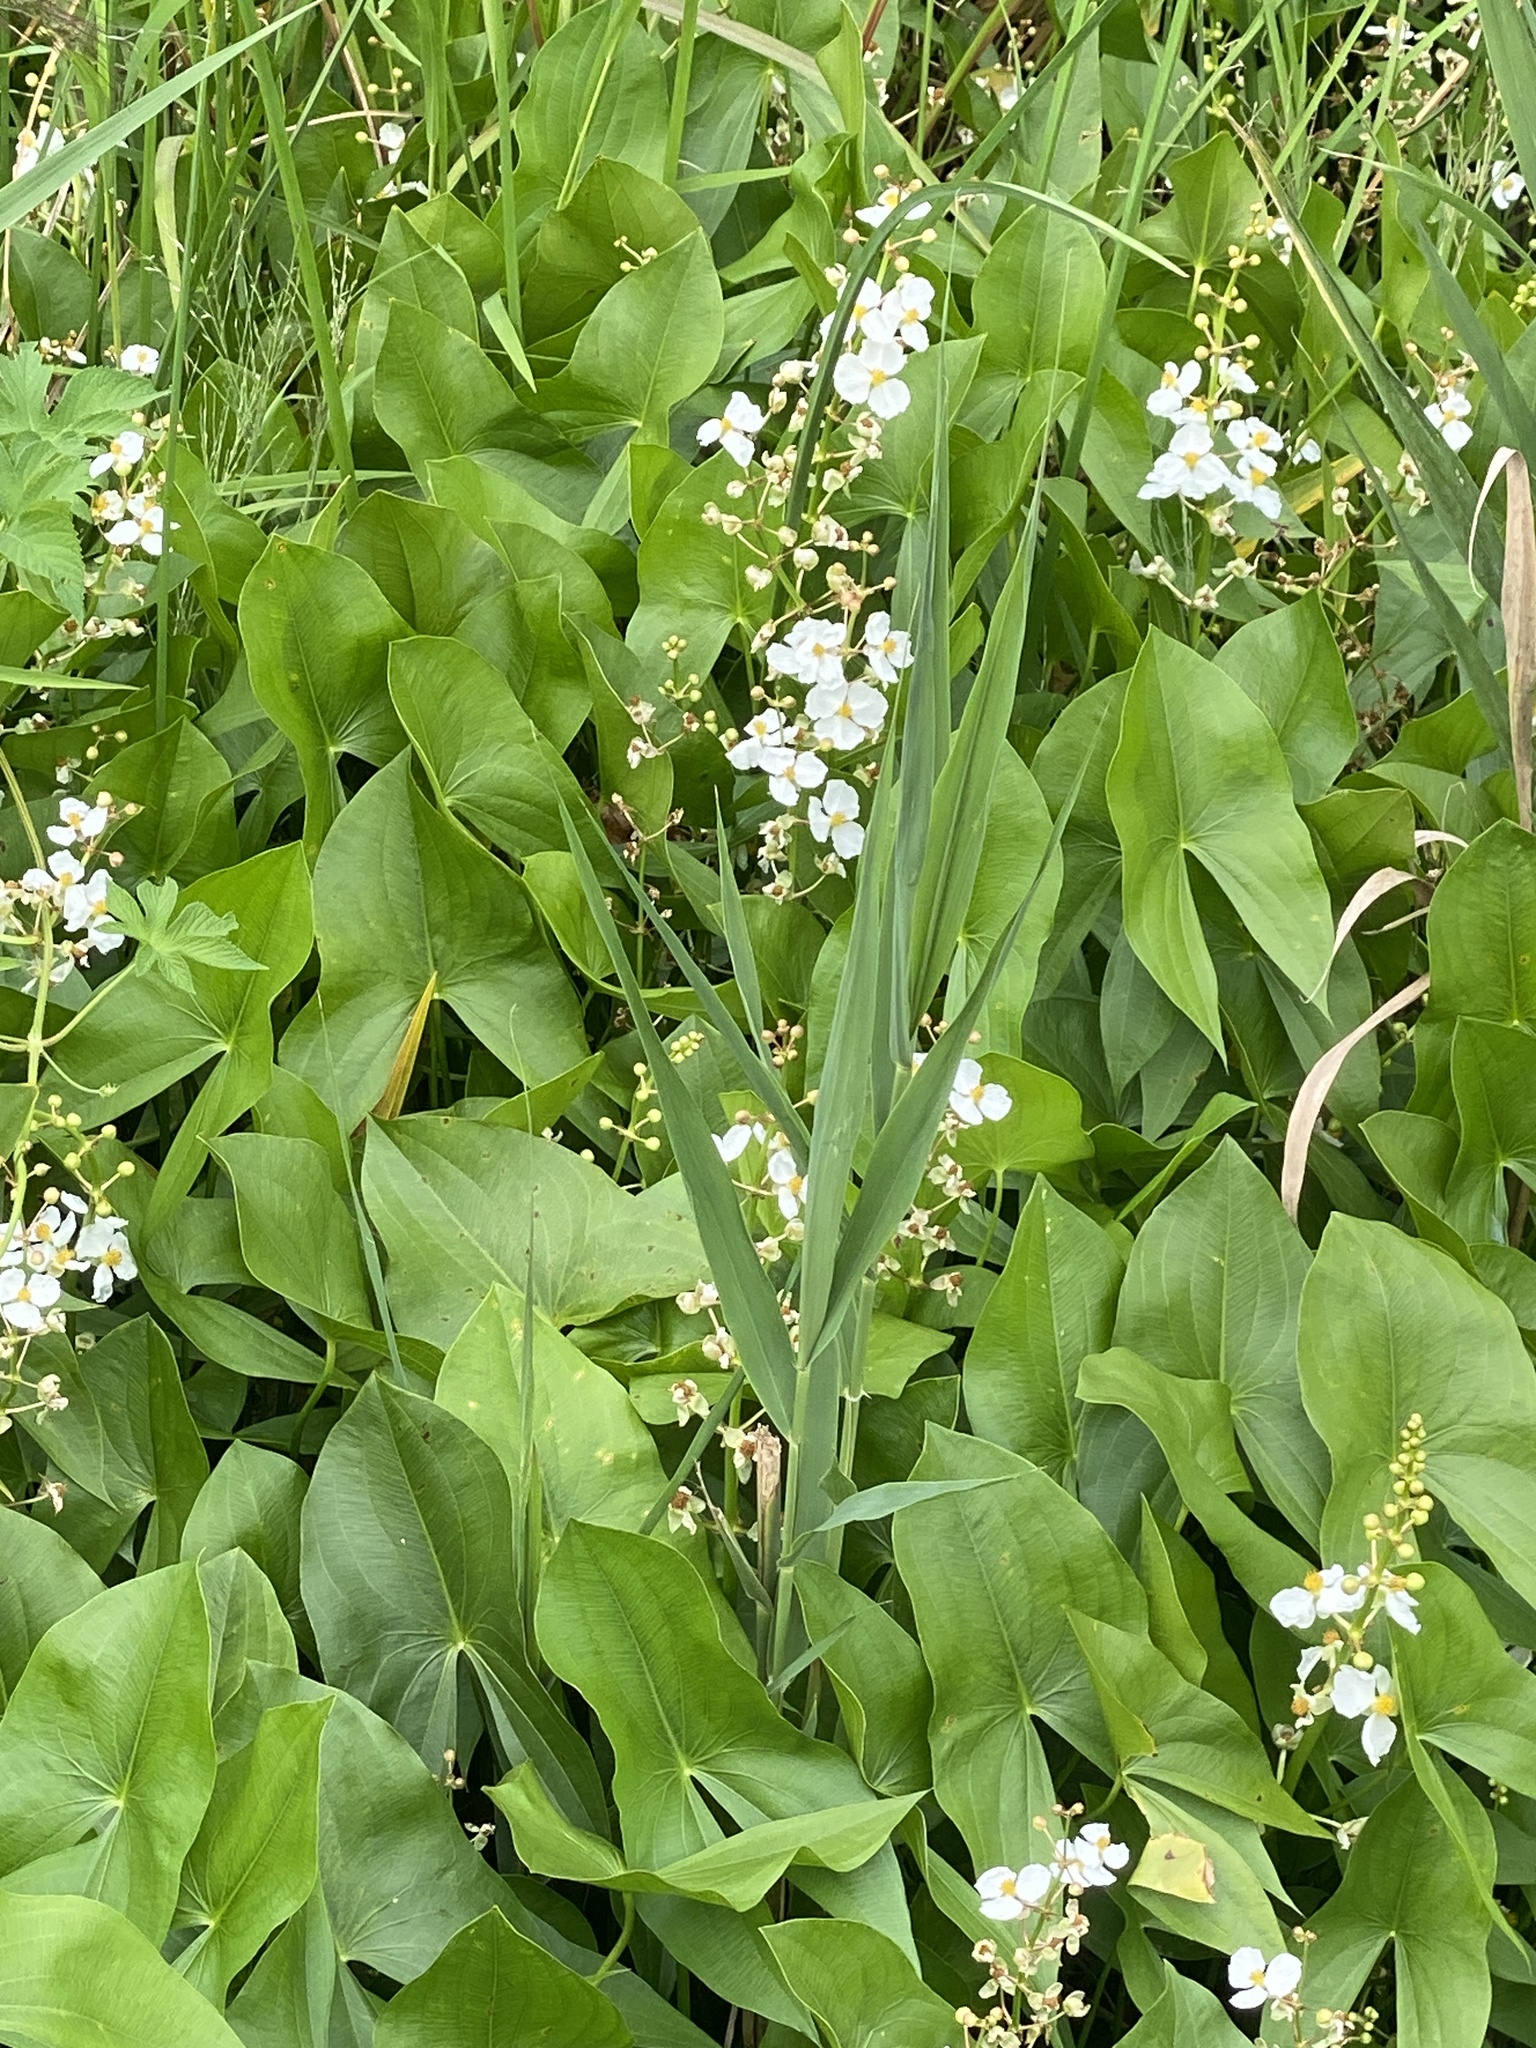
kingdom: Plantae
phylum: Tracheophyta
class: Liliopsida
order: Alismatales
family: Alismataceae
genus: Sagittaria
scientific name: Sagittaria latifolia
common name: Duck-potato
